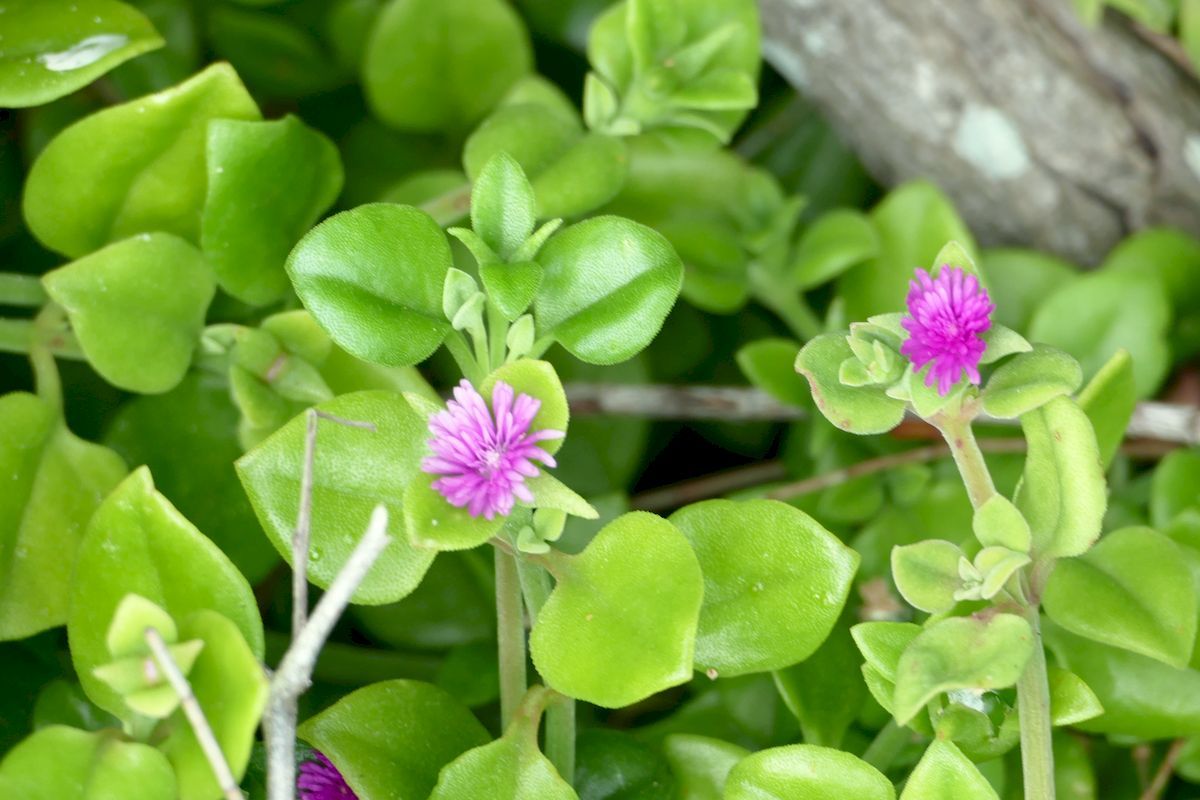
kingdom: Plantae
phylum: Tracheophyta
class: Magnoliopsida
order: Caryophyllales
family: Aizoaceae
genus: Mesembryanthemum
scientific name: Mesembryanthemum cordifolium
